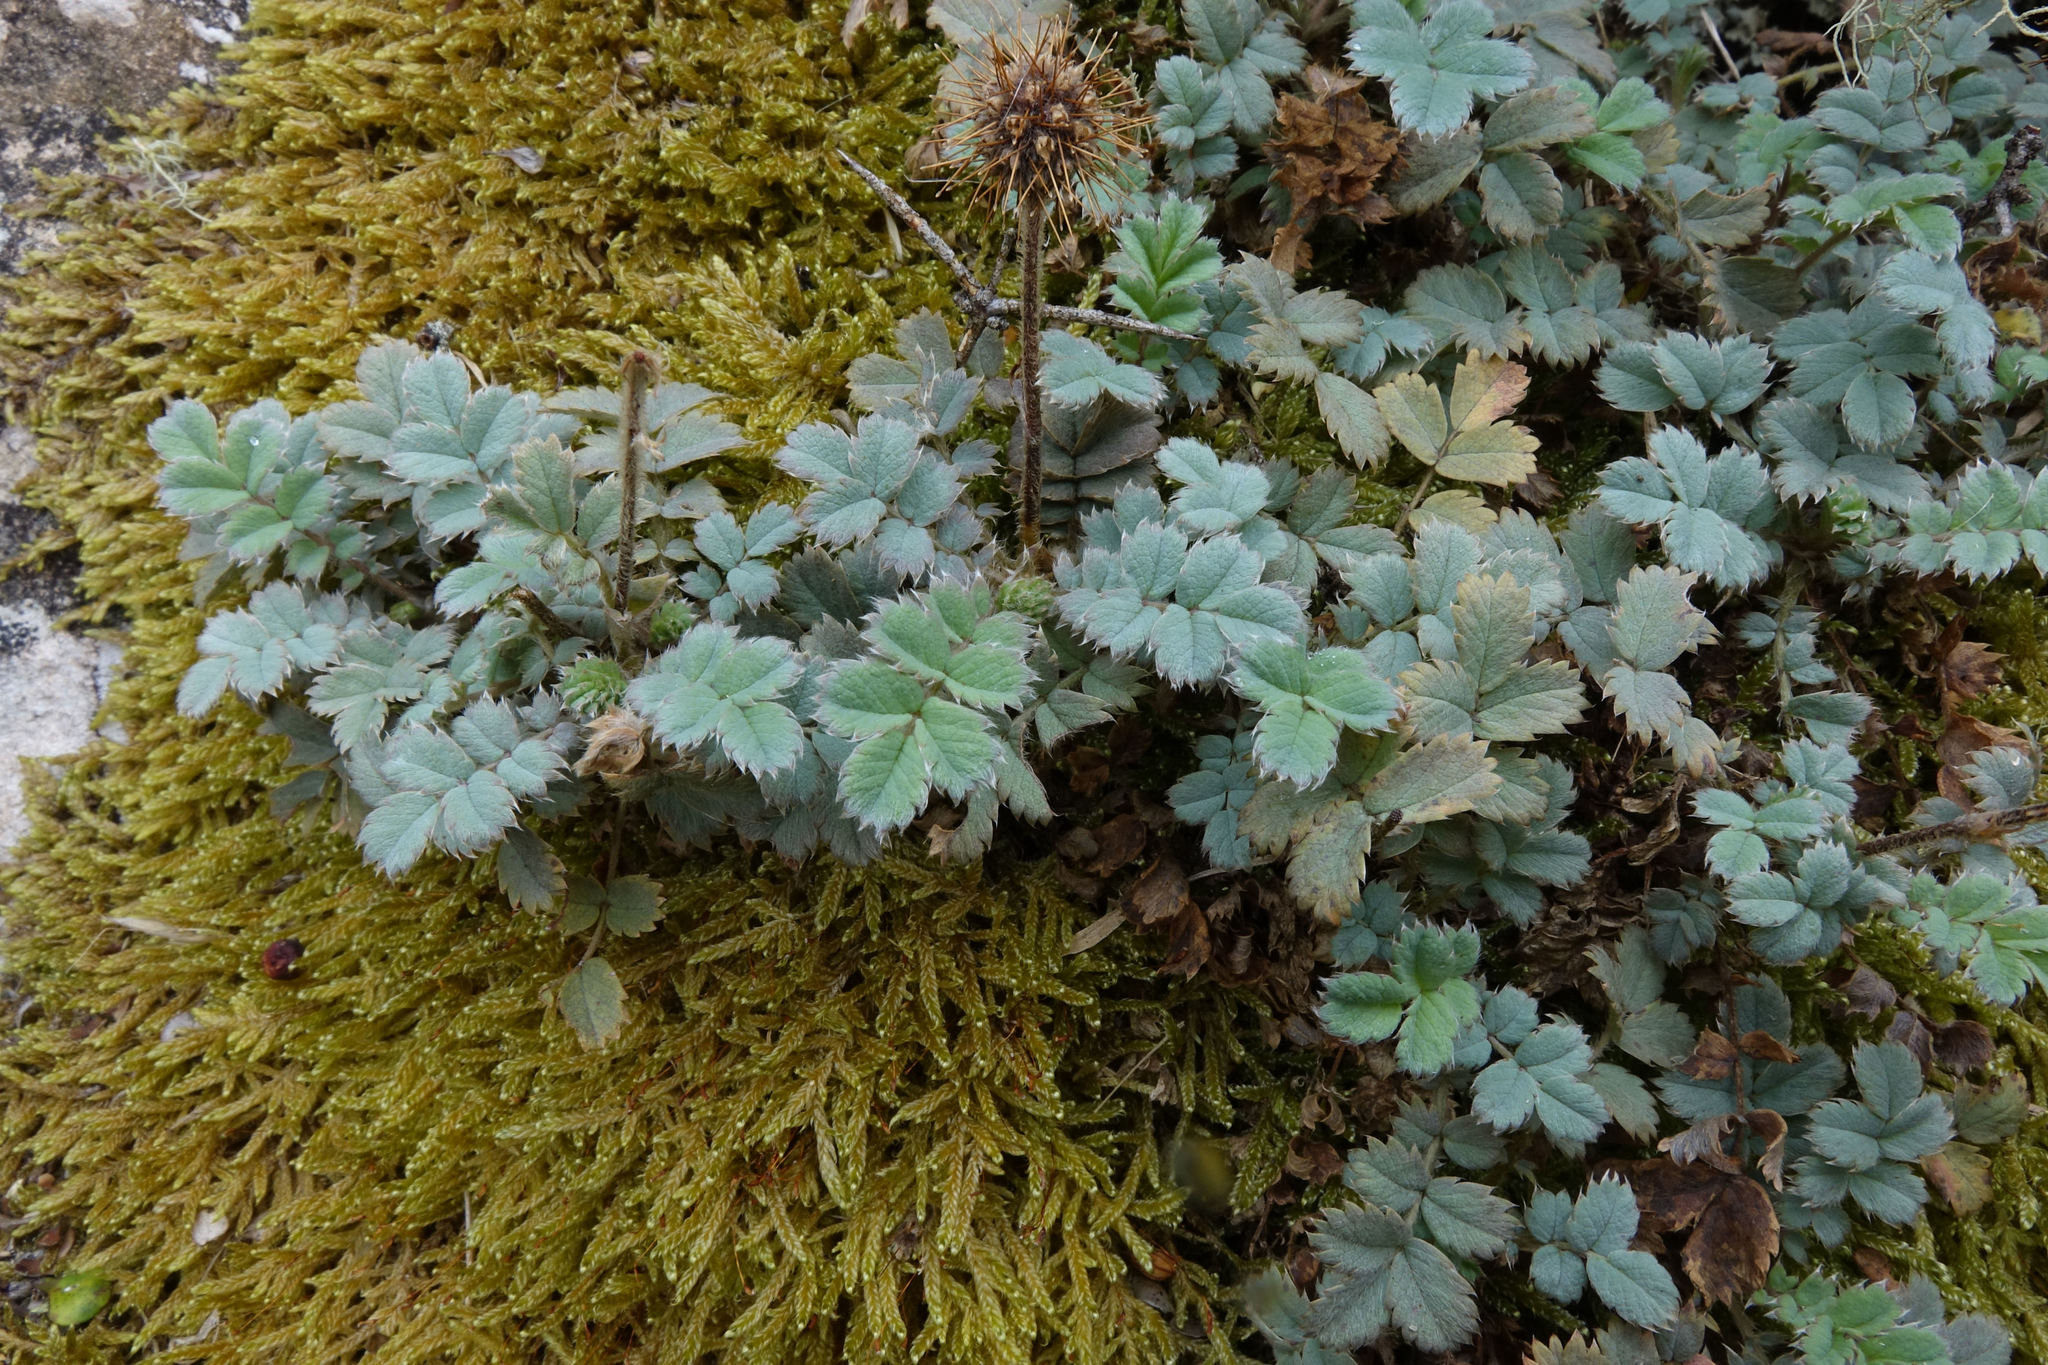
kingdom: Plantae
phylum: Tracheophyta
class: Magnoliopsida
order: Rosales
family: Rosaceae
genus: Acaena
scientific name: Acaena caesiiglauca
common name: Glaucous pirri-pirri-bur
